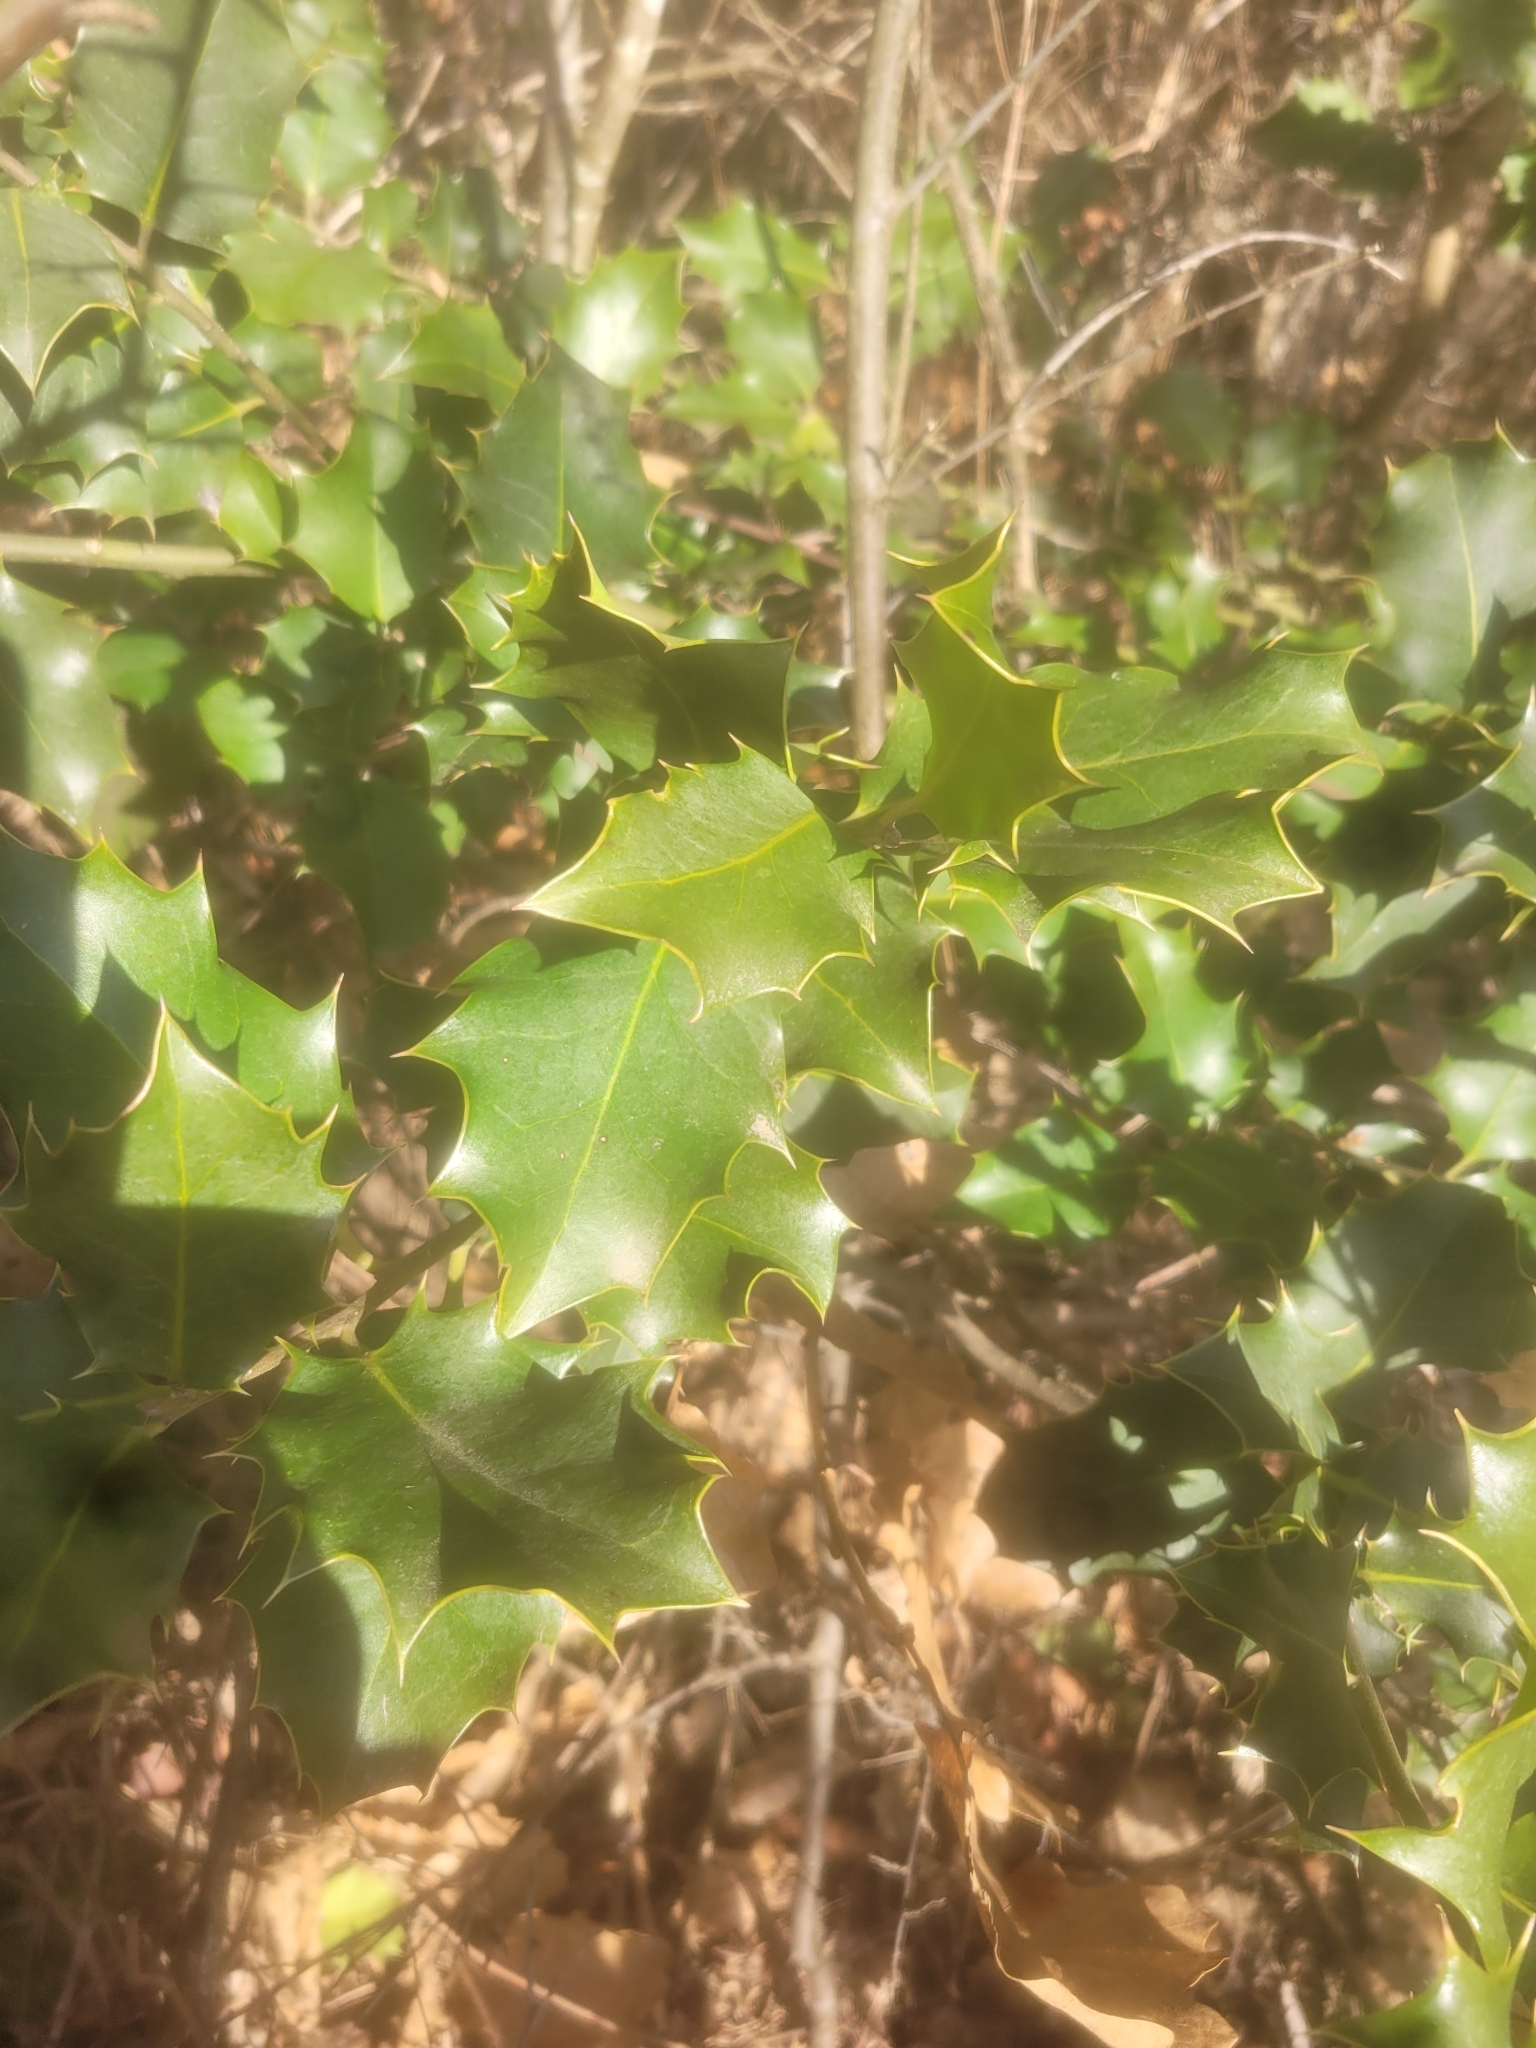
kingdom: Plantae
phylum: Tracheophyta
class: Magnoliopsida
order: Aquifoliales
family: Aquifoliaceae
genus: Ilex
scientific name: Ilex aquifolium
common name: English holly
